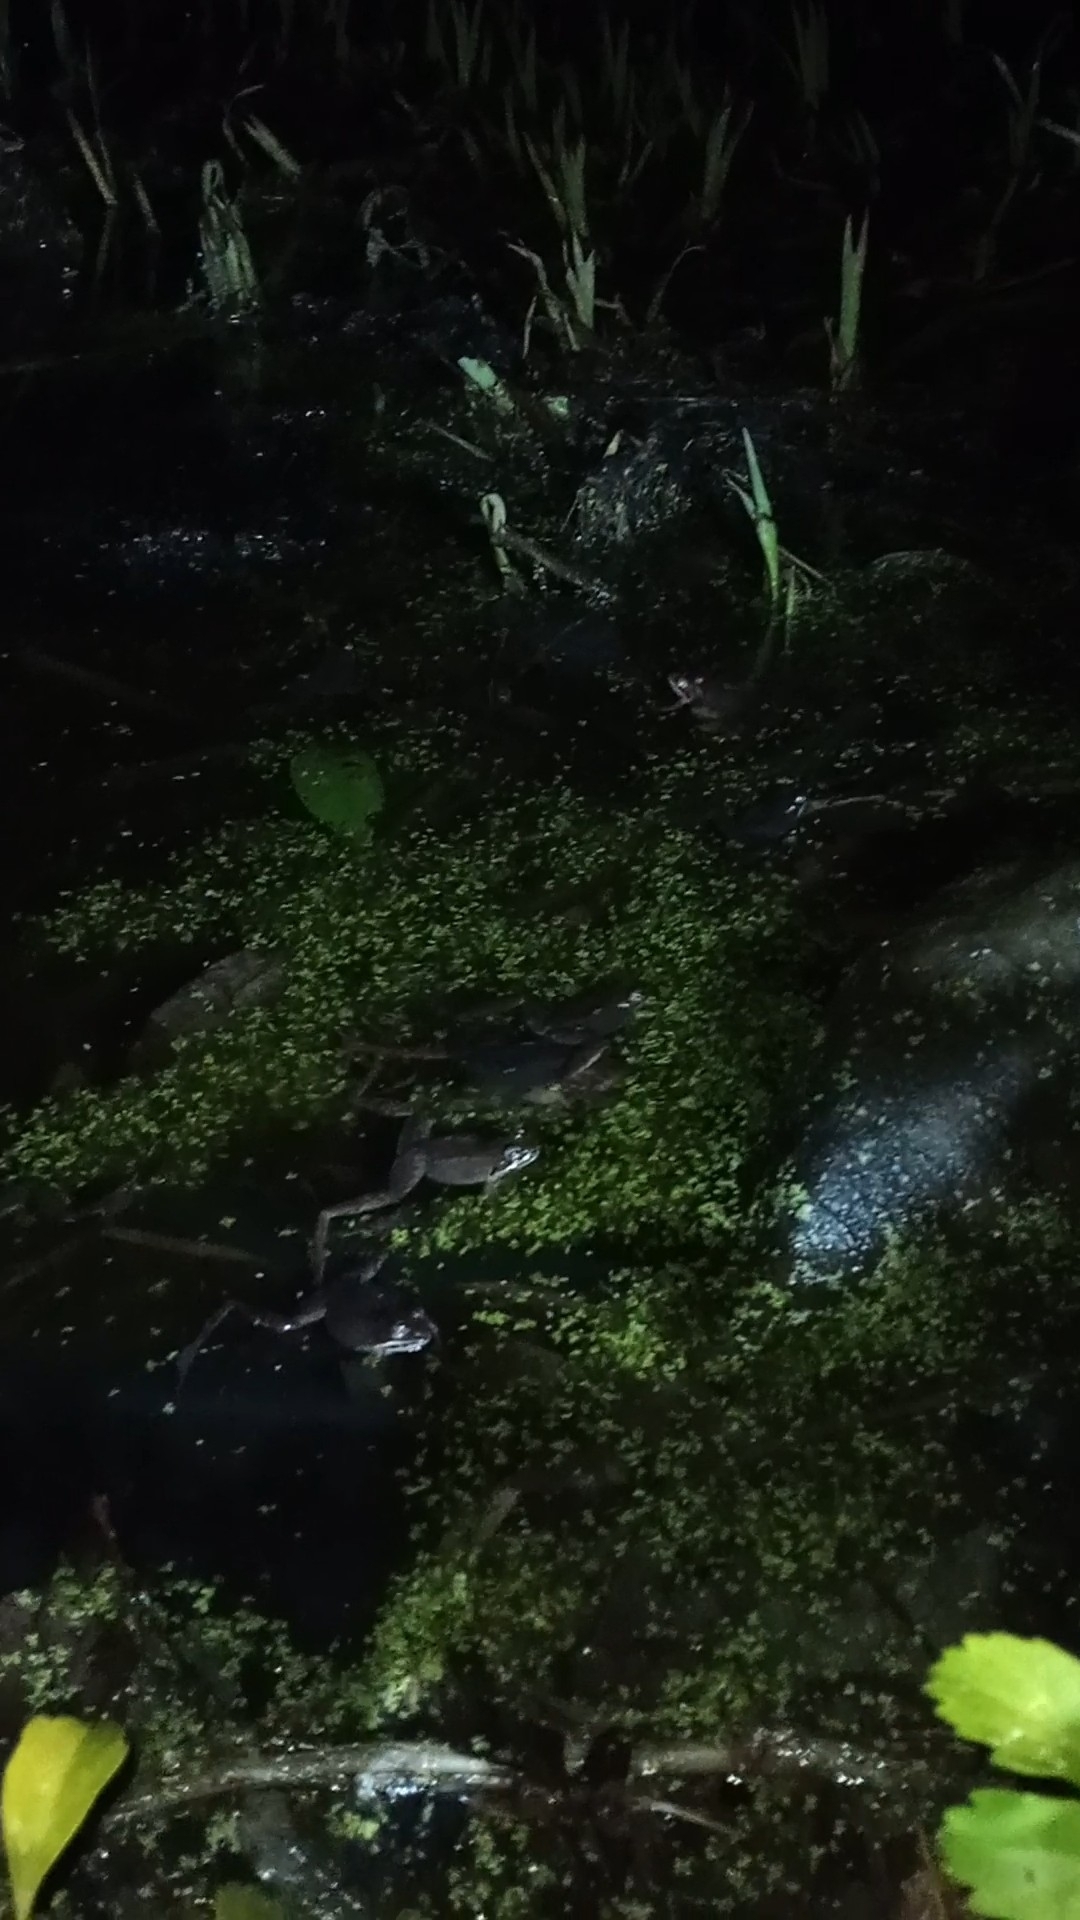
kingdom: Animalia
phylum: Chordata
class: Amphibia
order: Anura
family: Ranidae
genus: Lithobates
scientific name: Lithobates sylvaticus
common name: Wood frog
